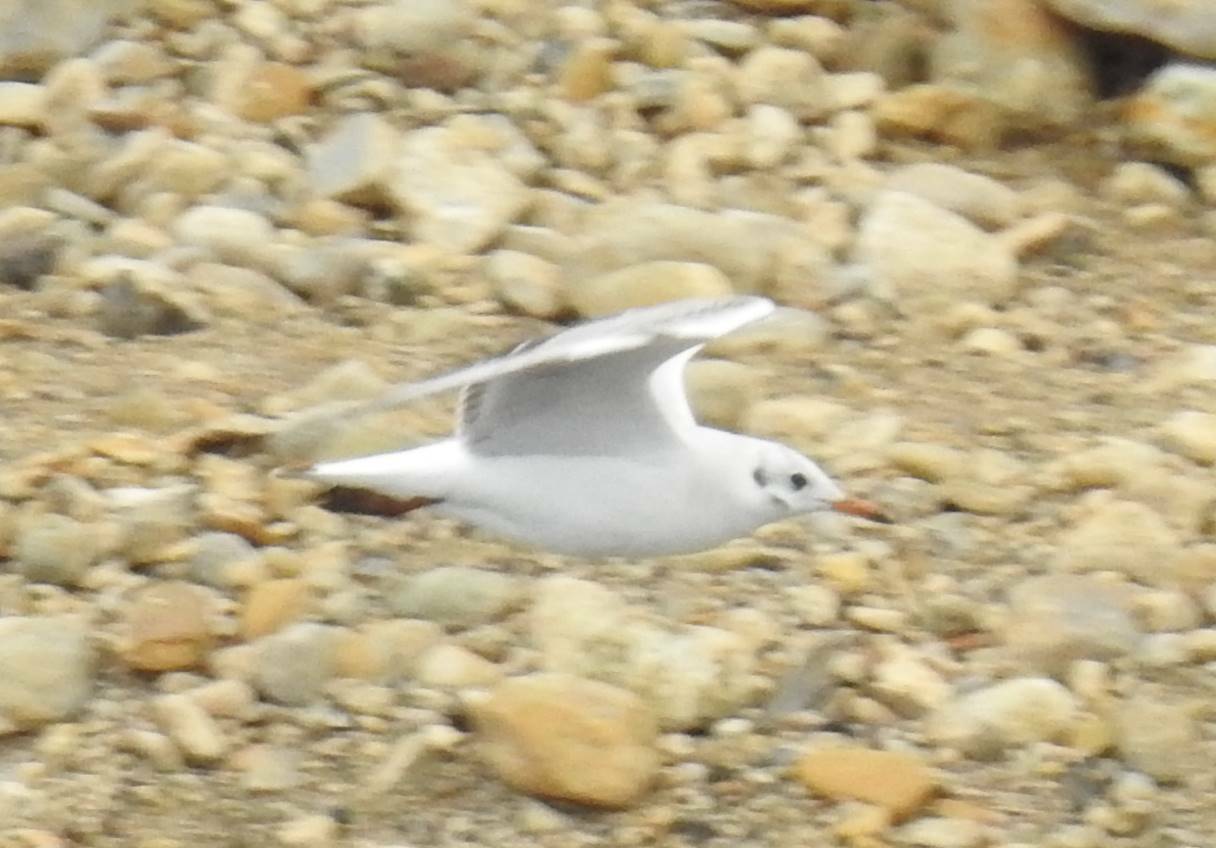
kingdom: Animalia
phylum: Chordata
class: Aves
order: Charadriiformes
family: Laridae
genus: Chroicocephalus
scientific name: Chroicocephalus ridibundus
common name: Black-headed gull
